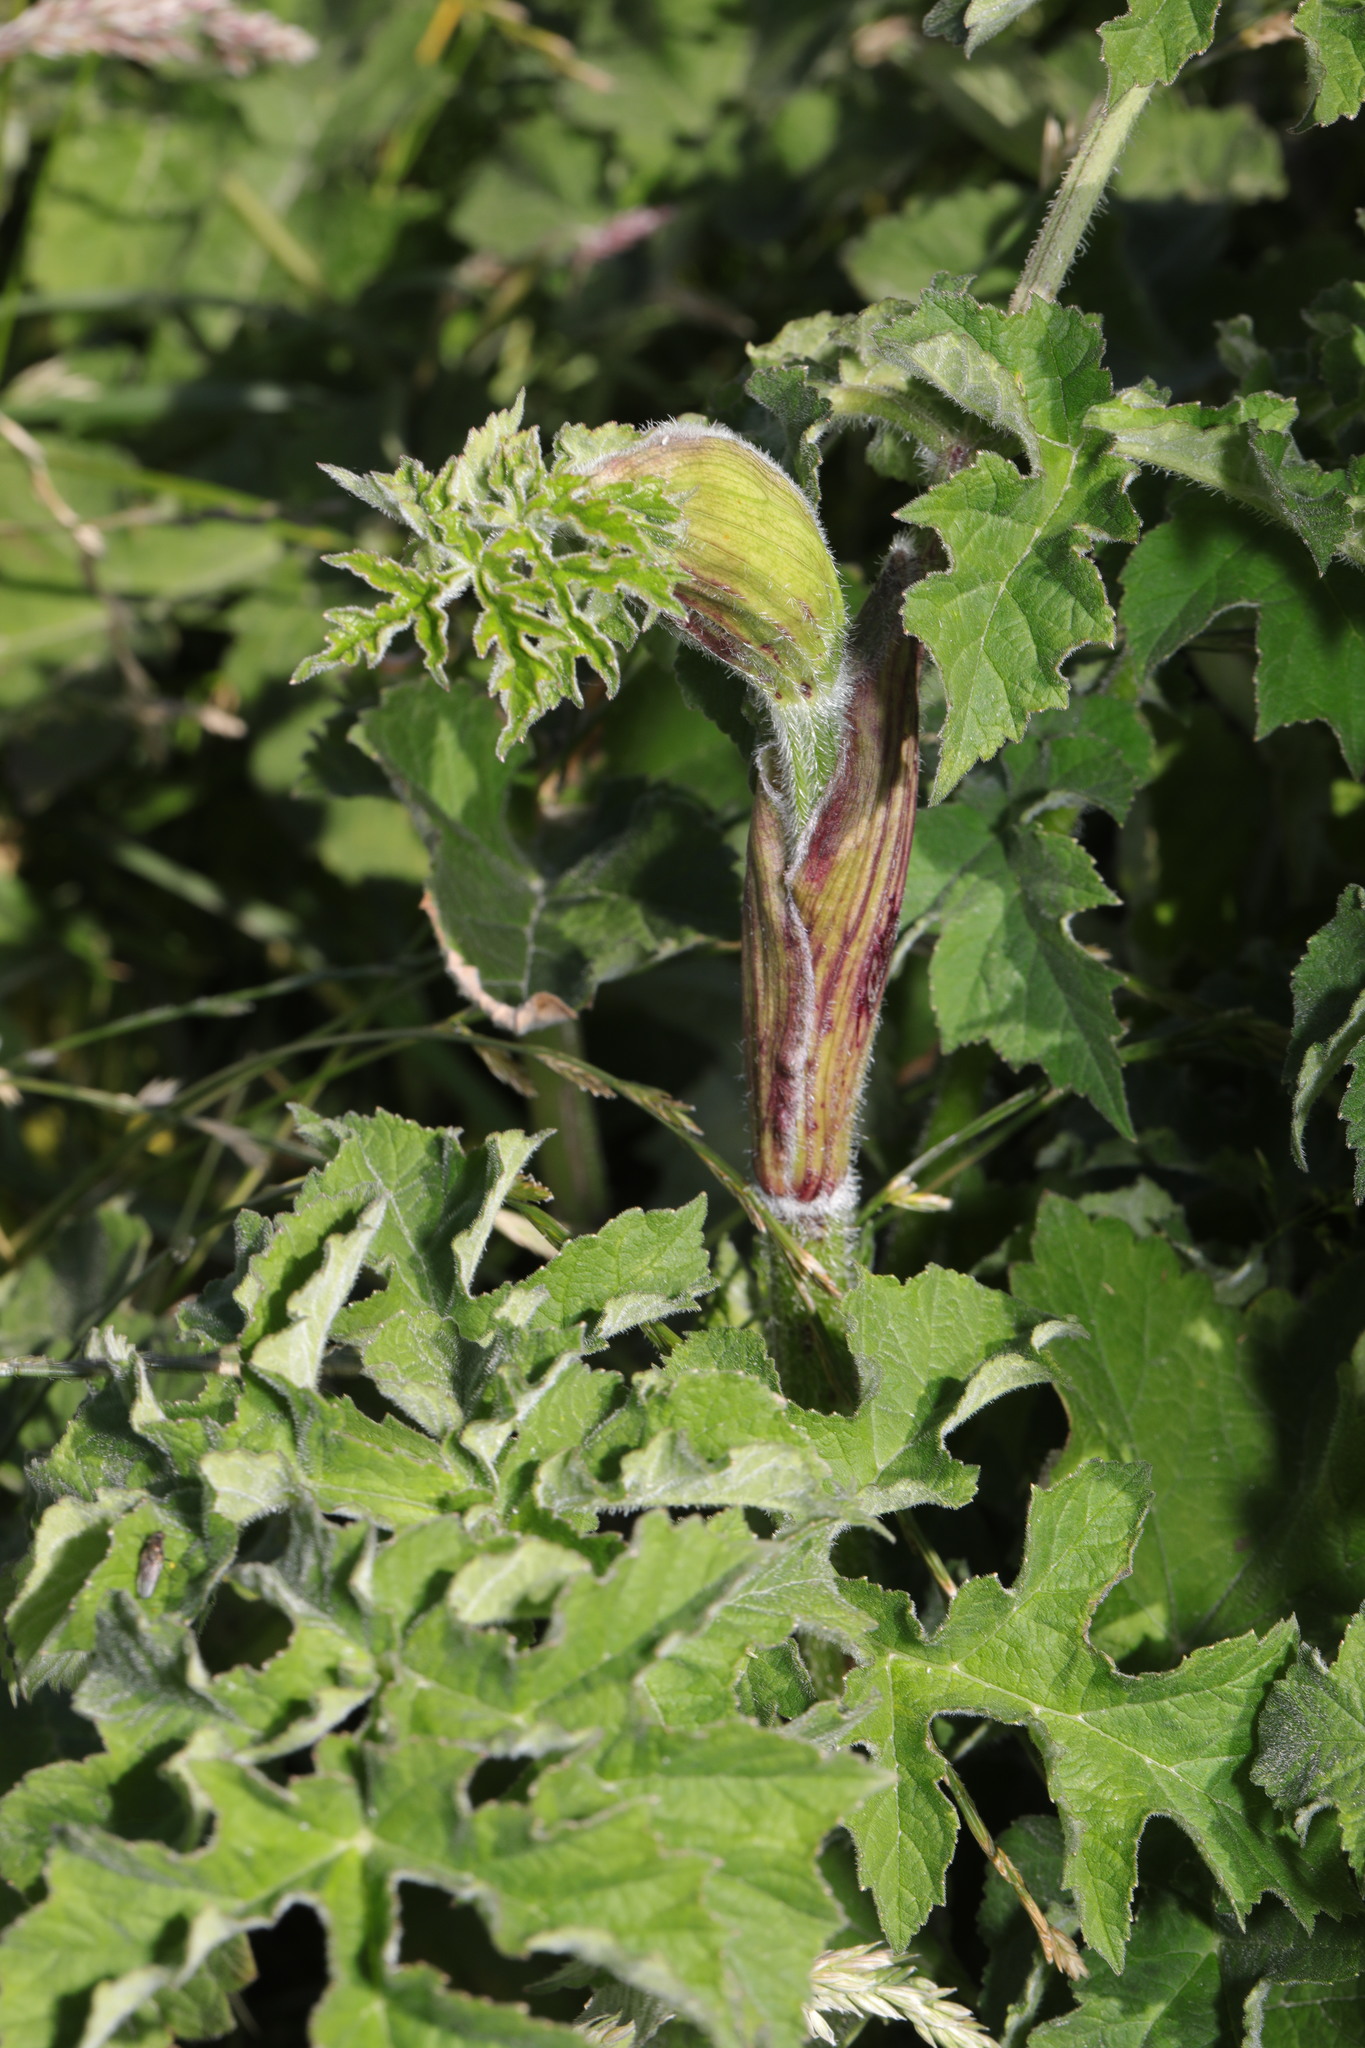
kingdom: Plantae
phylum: Tracheophyta
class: Magnoliopsida
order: Apiales
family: Apiaceae
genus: Heracleum
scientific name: Heracleum sphondylium
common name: Hogweed
